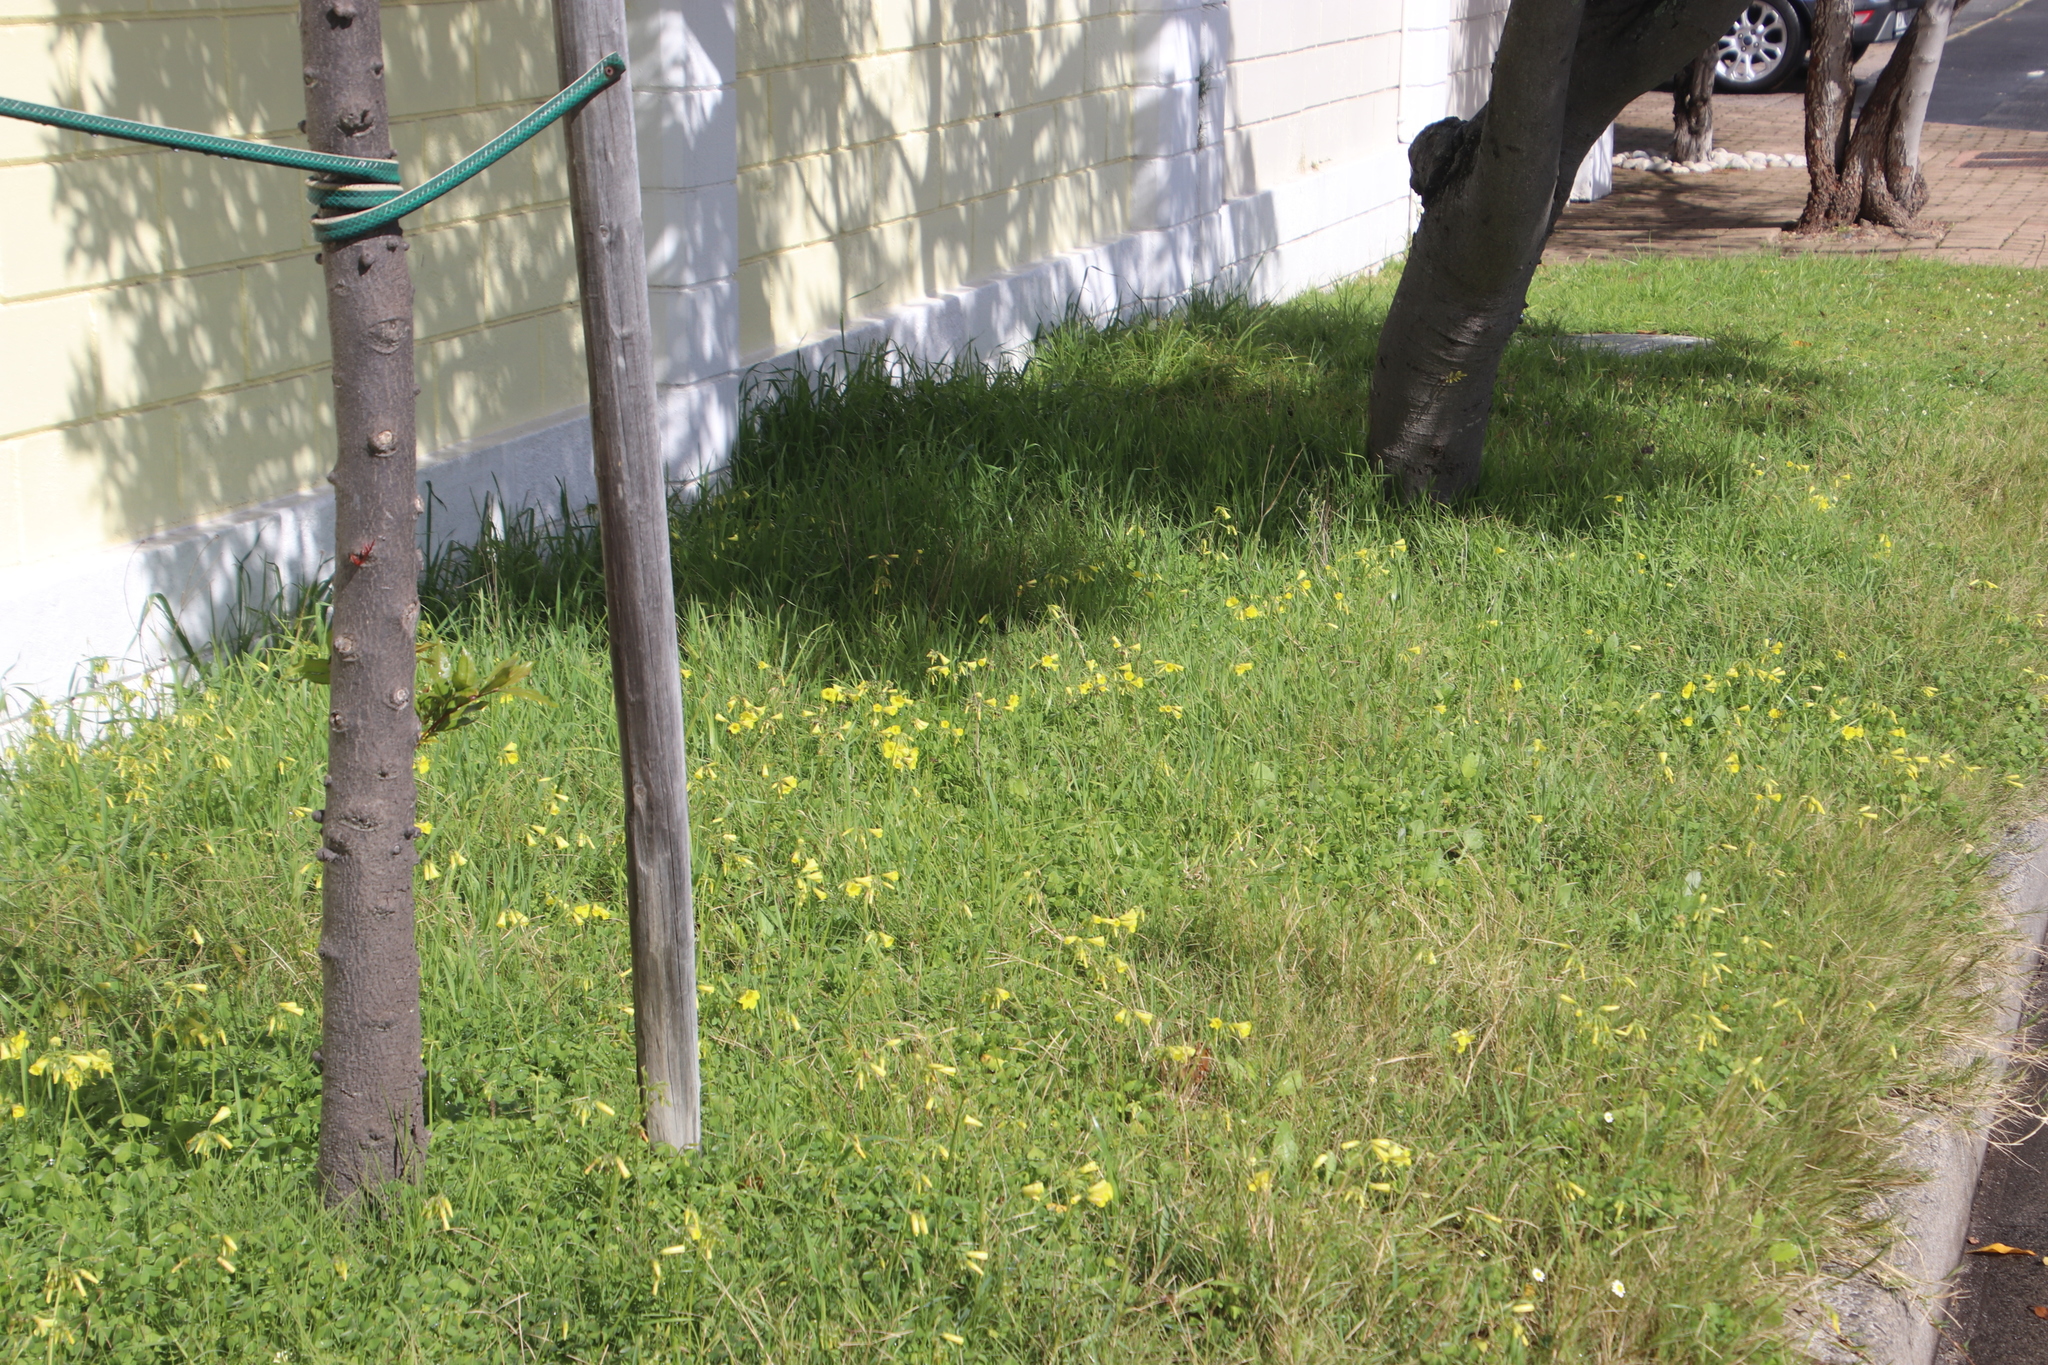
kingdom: Plantae
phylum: Tracheophyta
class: Magnoliopsida
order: Oxalidales
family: Oxalidaceae
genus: Oxalis
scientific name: Oxalis pes-caprae
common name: Bermuda-buttercup
